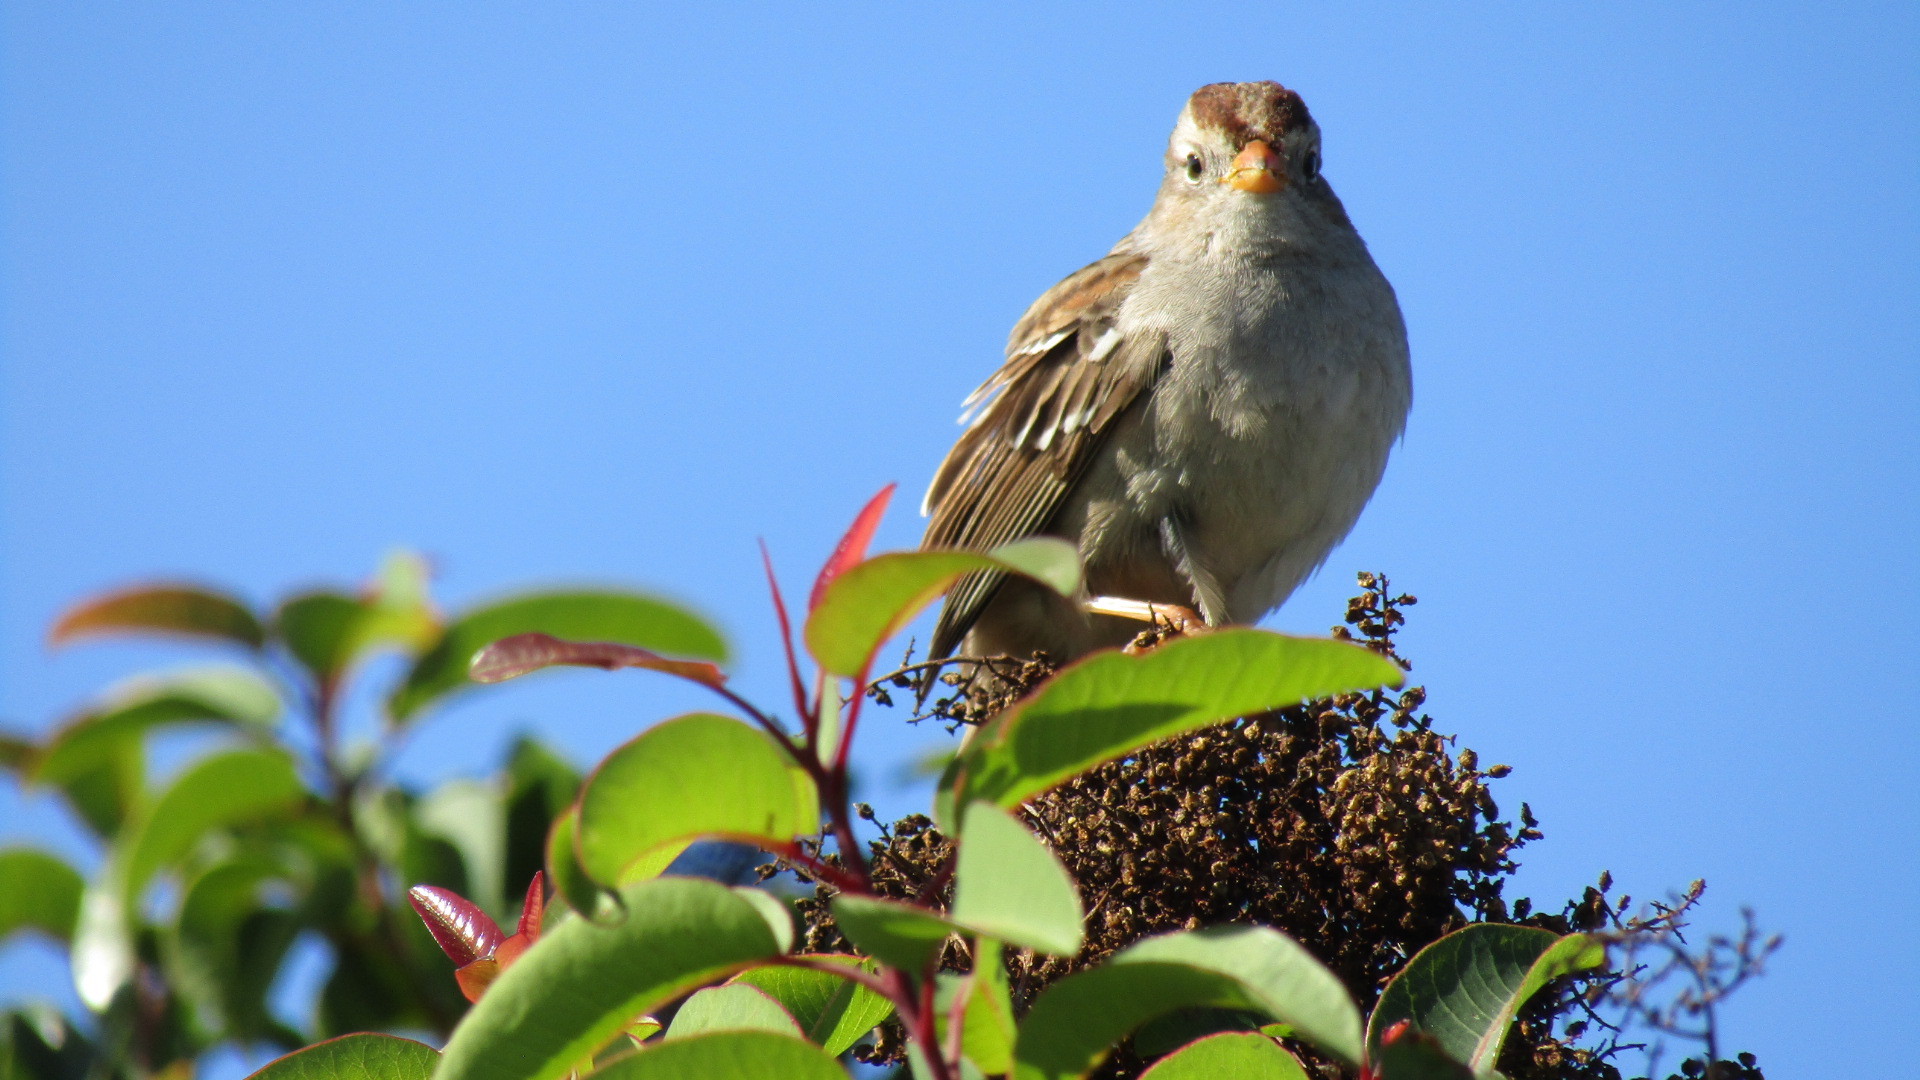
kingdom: Animalia
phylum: Chordata
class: Aves
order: Passeriformes
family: Passerellidae
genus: Zonotrichia
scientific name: Zonotrichia leucophrys
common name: White-crowned sparrow
